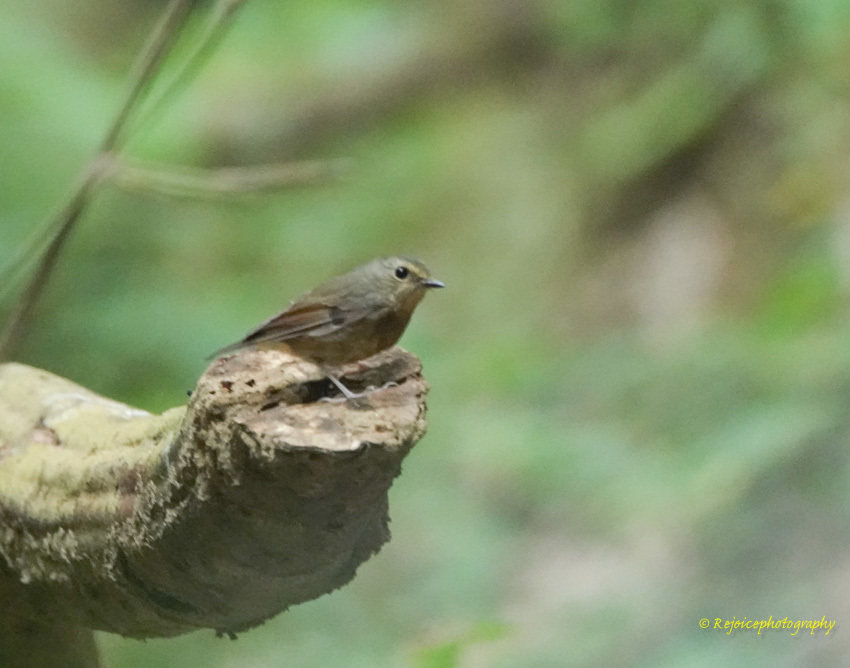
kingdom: Animalia
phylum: Chordata
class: Aves
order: Passeriformes
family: Muscicapidae
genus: Ficedula
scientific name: Ficedula hyperythra
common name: Snowy-browed flycatcher
